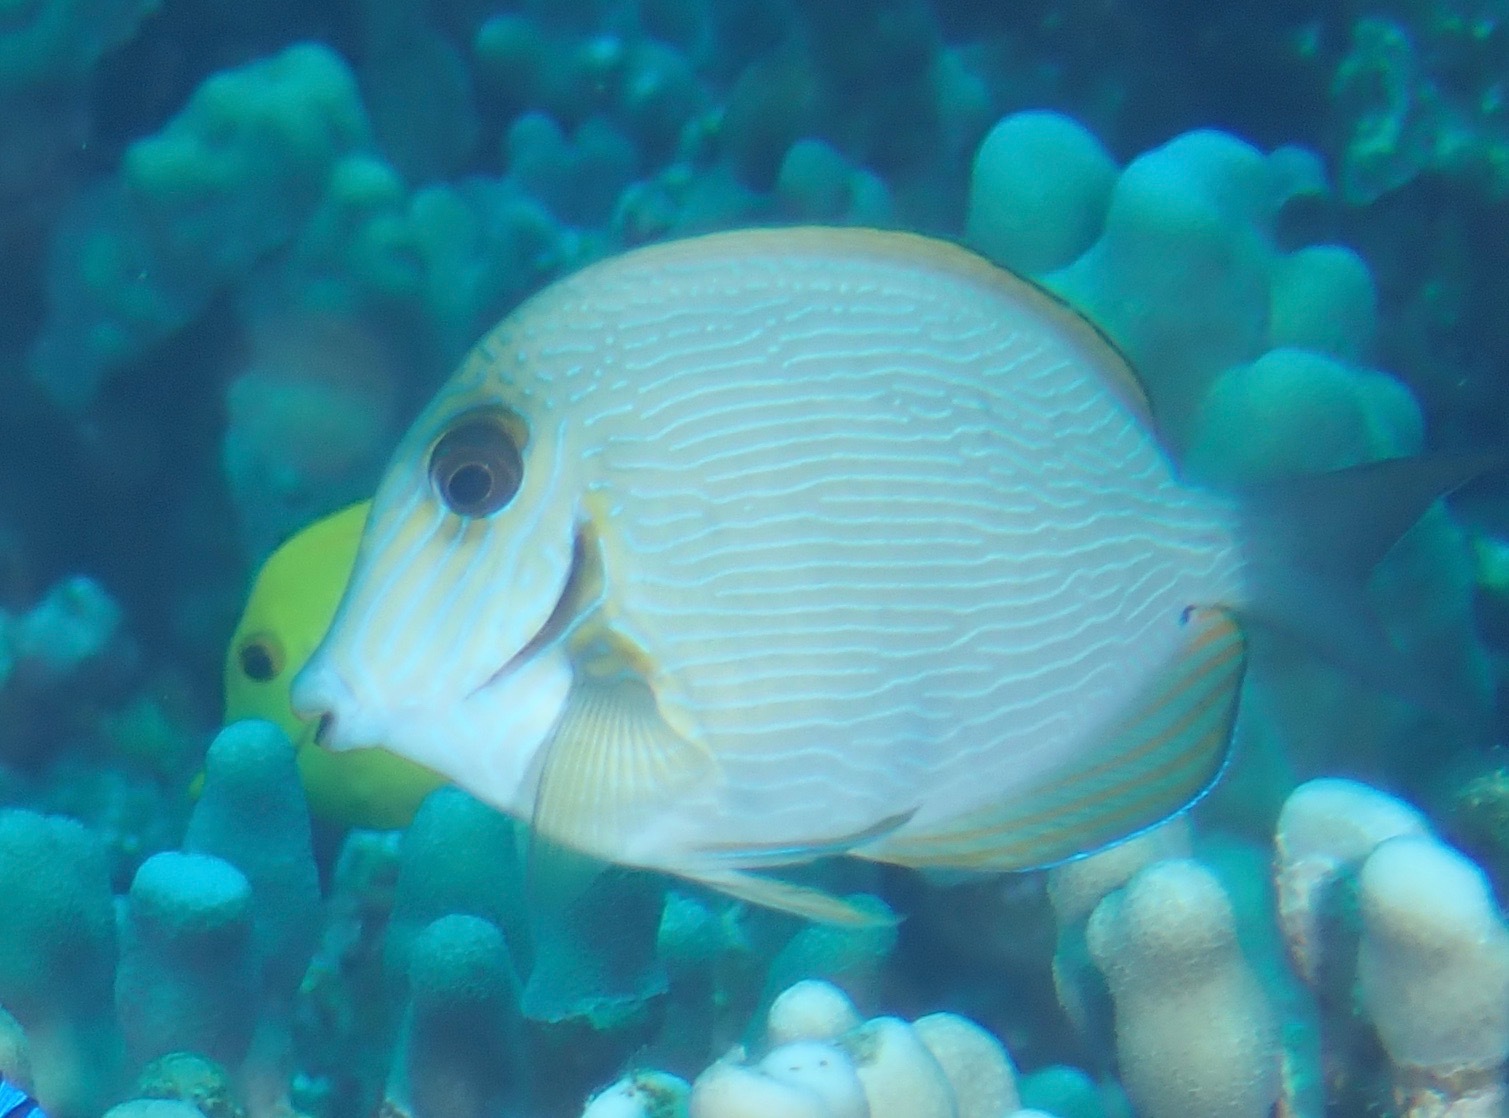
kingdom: Animalia
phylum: Chordata
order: Perciformes
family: Acanthuridae
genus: Acanthurus
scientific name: Acanthurus nigroris
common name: Bluelined surgeonfish
